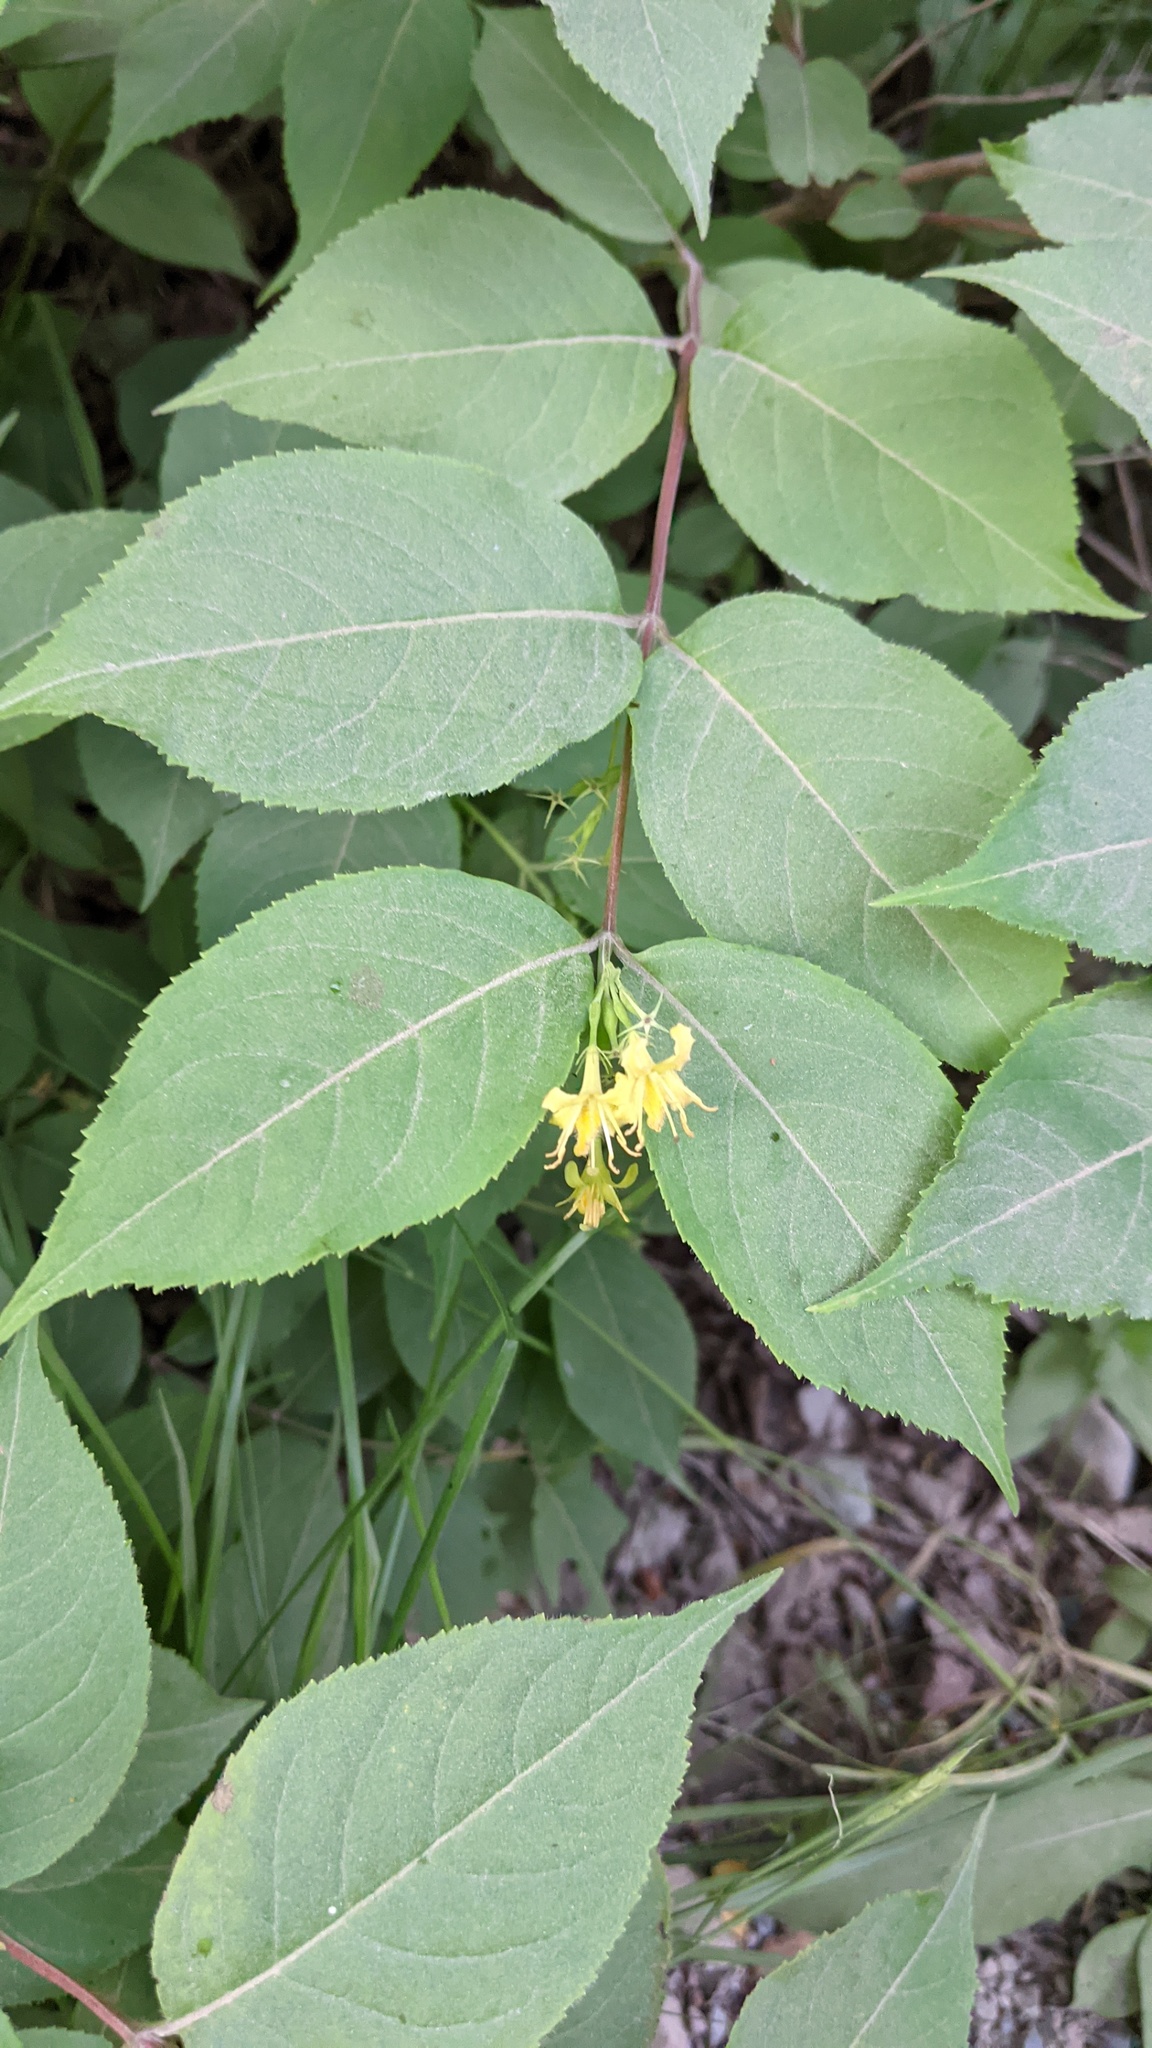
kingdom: Plantae
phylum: Tracheophyta
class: Magnoliopsida
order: Dipsacales
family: Caprifoliaceae
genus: Diervilla
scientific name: Diervilla lonicera
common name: Bush-honeysuckle
